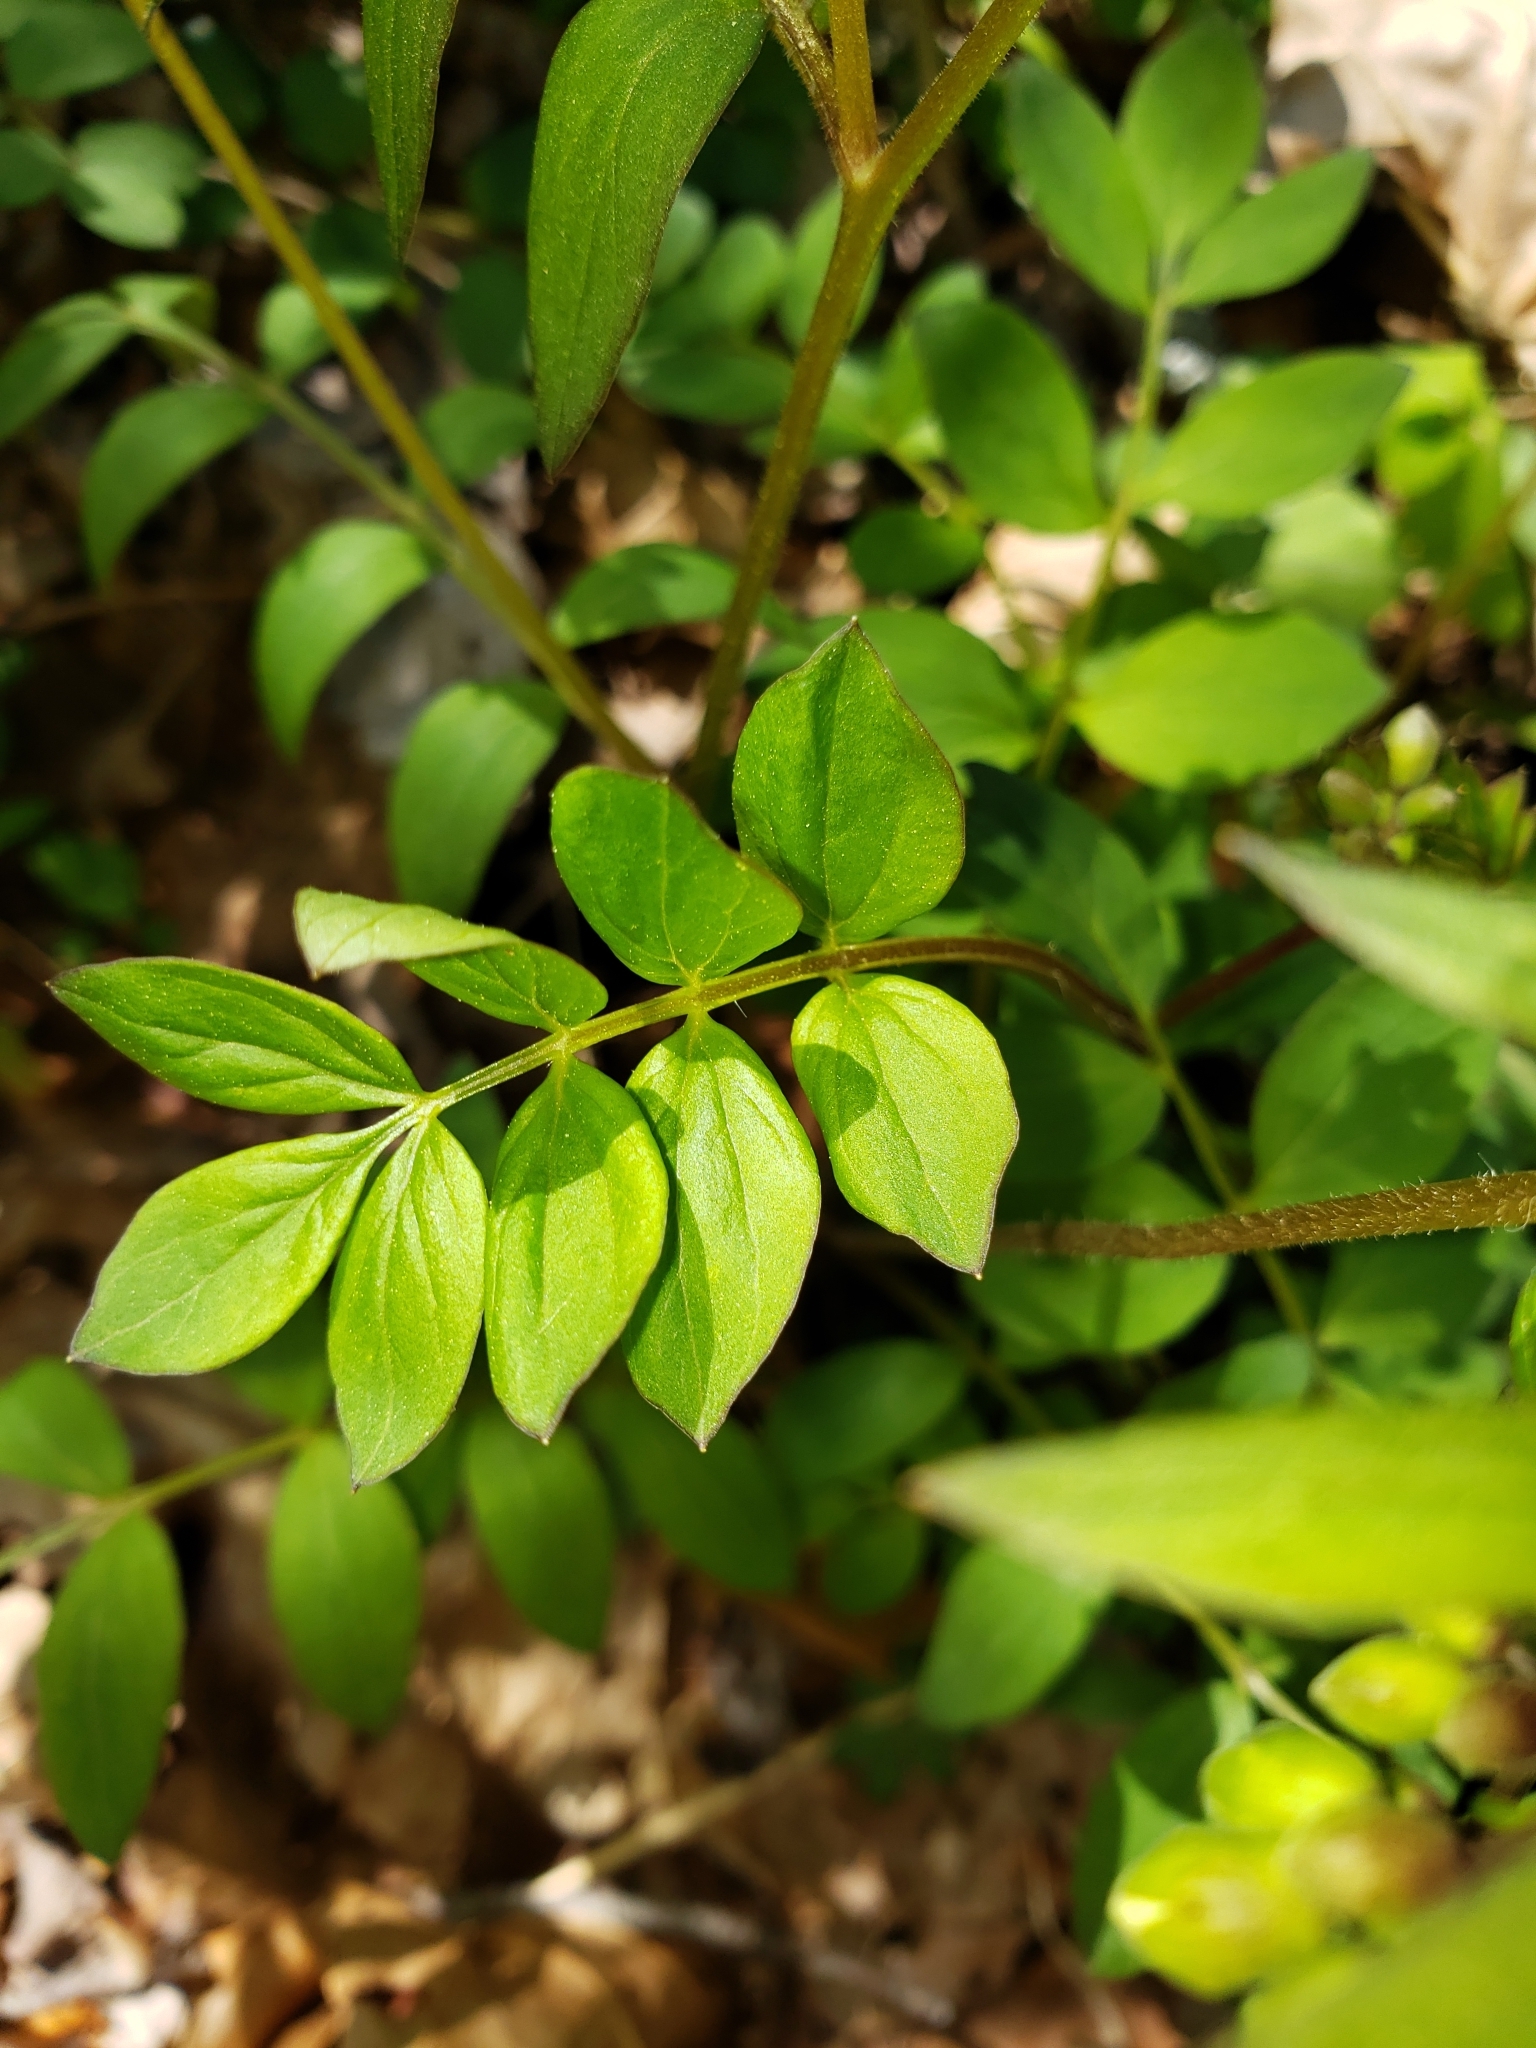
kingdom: Plantae
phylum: Tracheophyta
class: Magnoliopsida
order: Ericales
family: Polemoniaceae
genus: Polemonium
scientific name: Polemonium reptans
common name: Creeping jacob's-ladder
